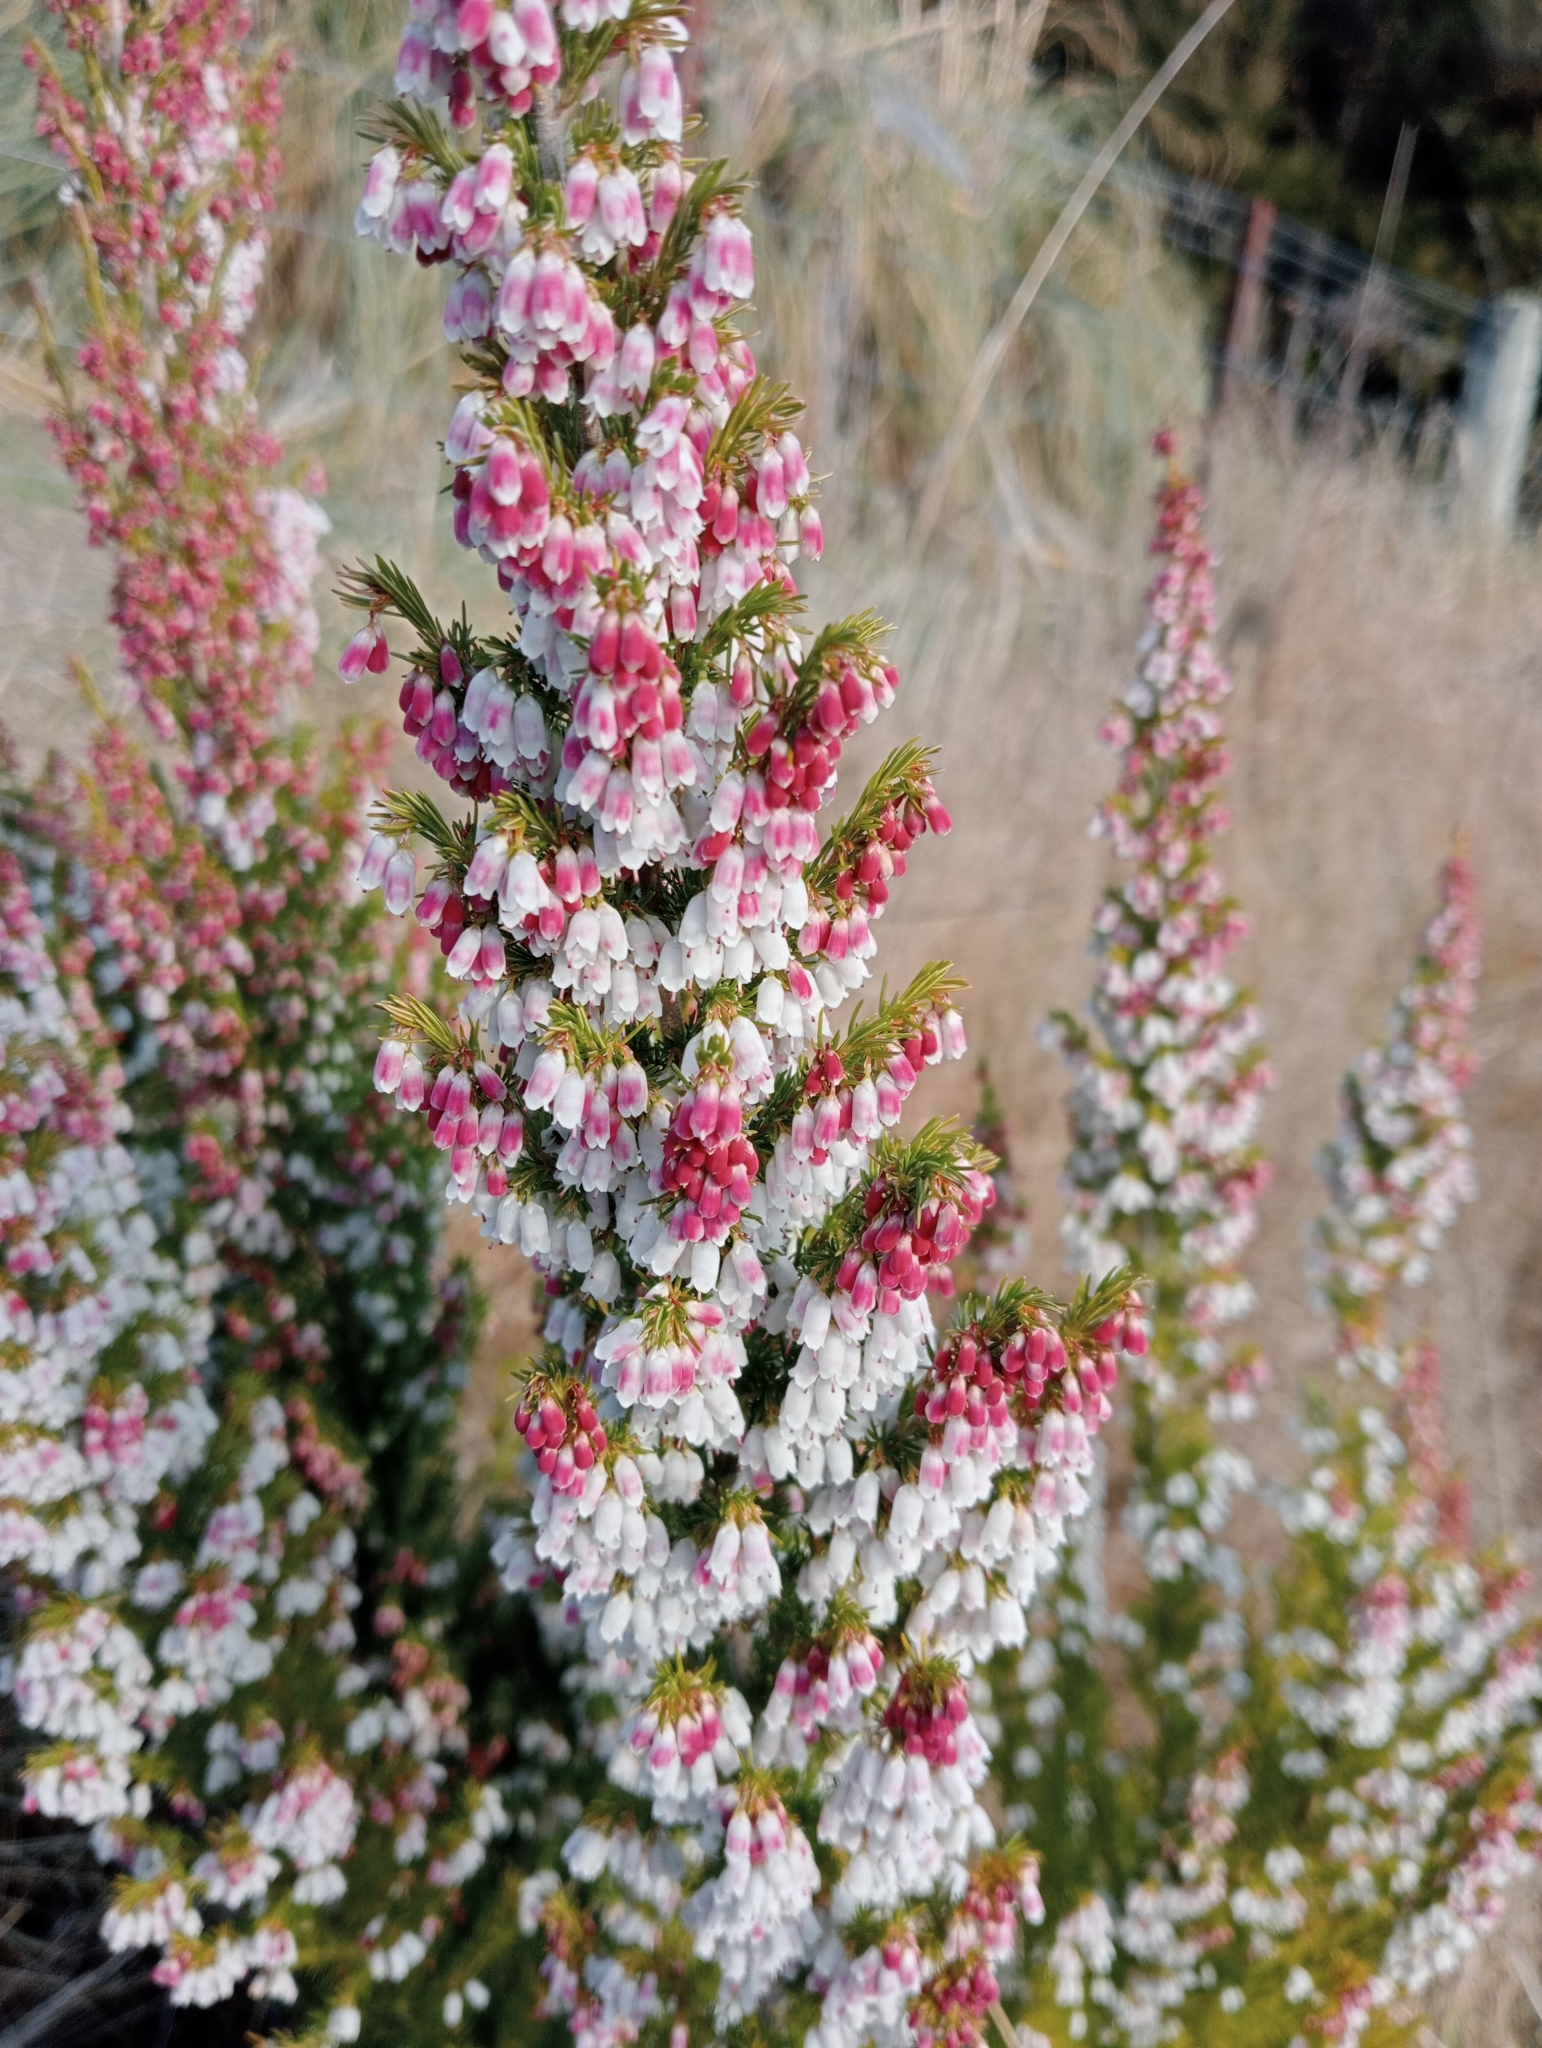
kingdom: Plantae
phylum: Tracheophyta
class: Magnoliopsida
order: Ericales
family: Ericaceae
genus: Erica
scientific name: Erica lusitanica
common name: Spanish heath
